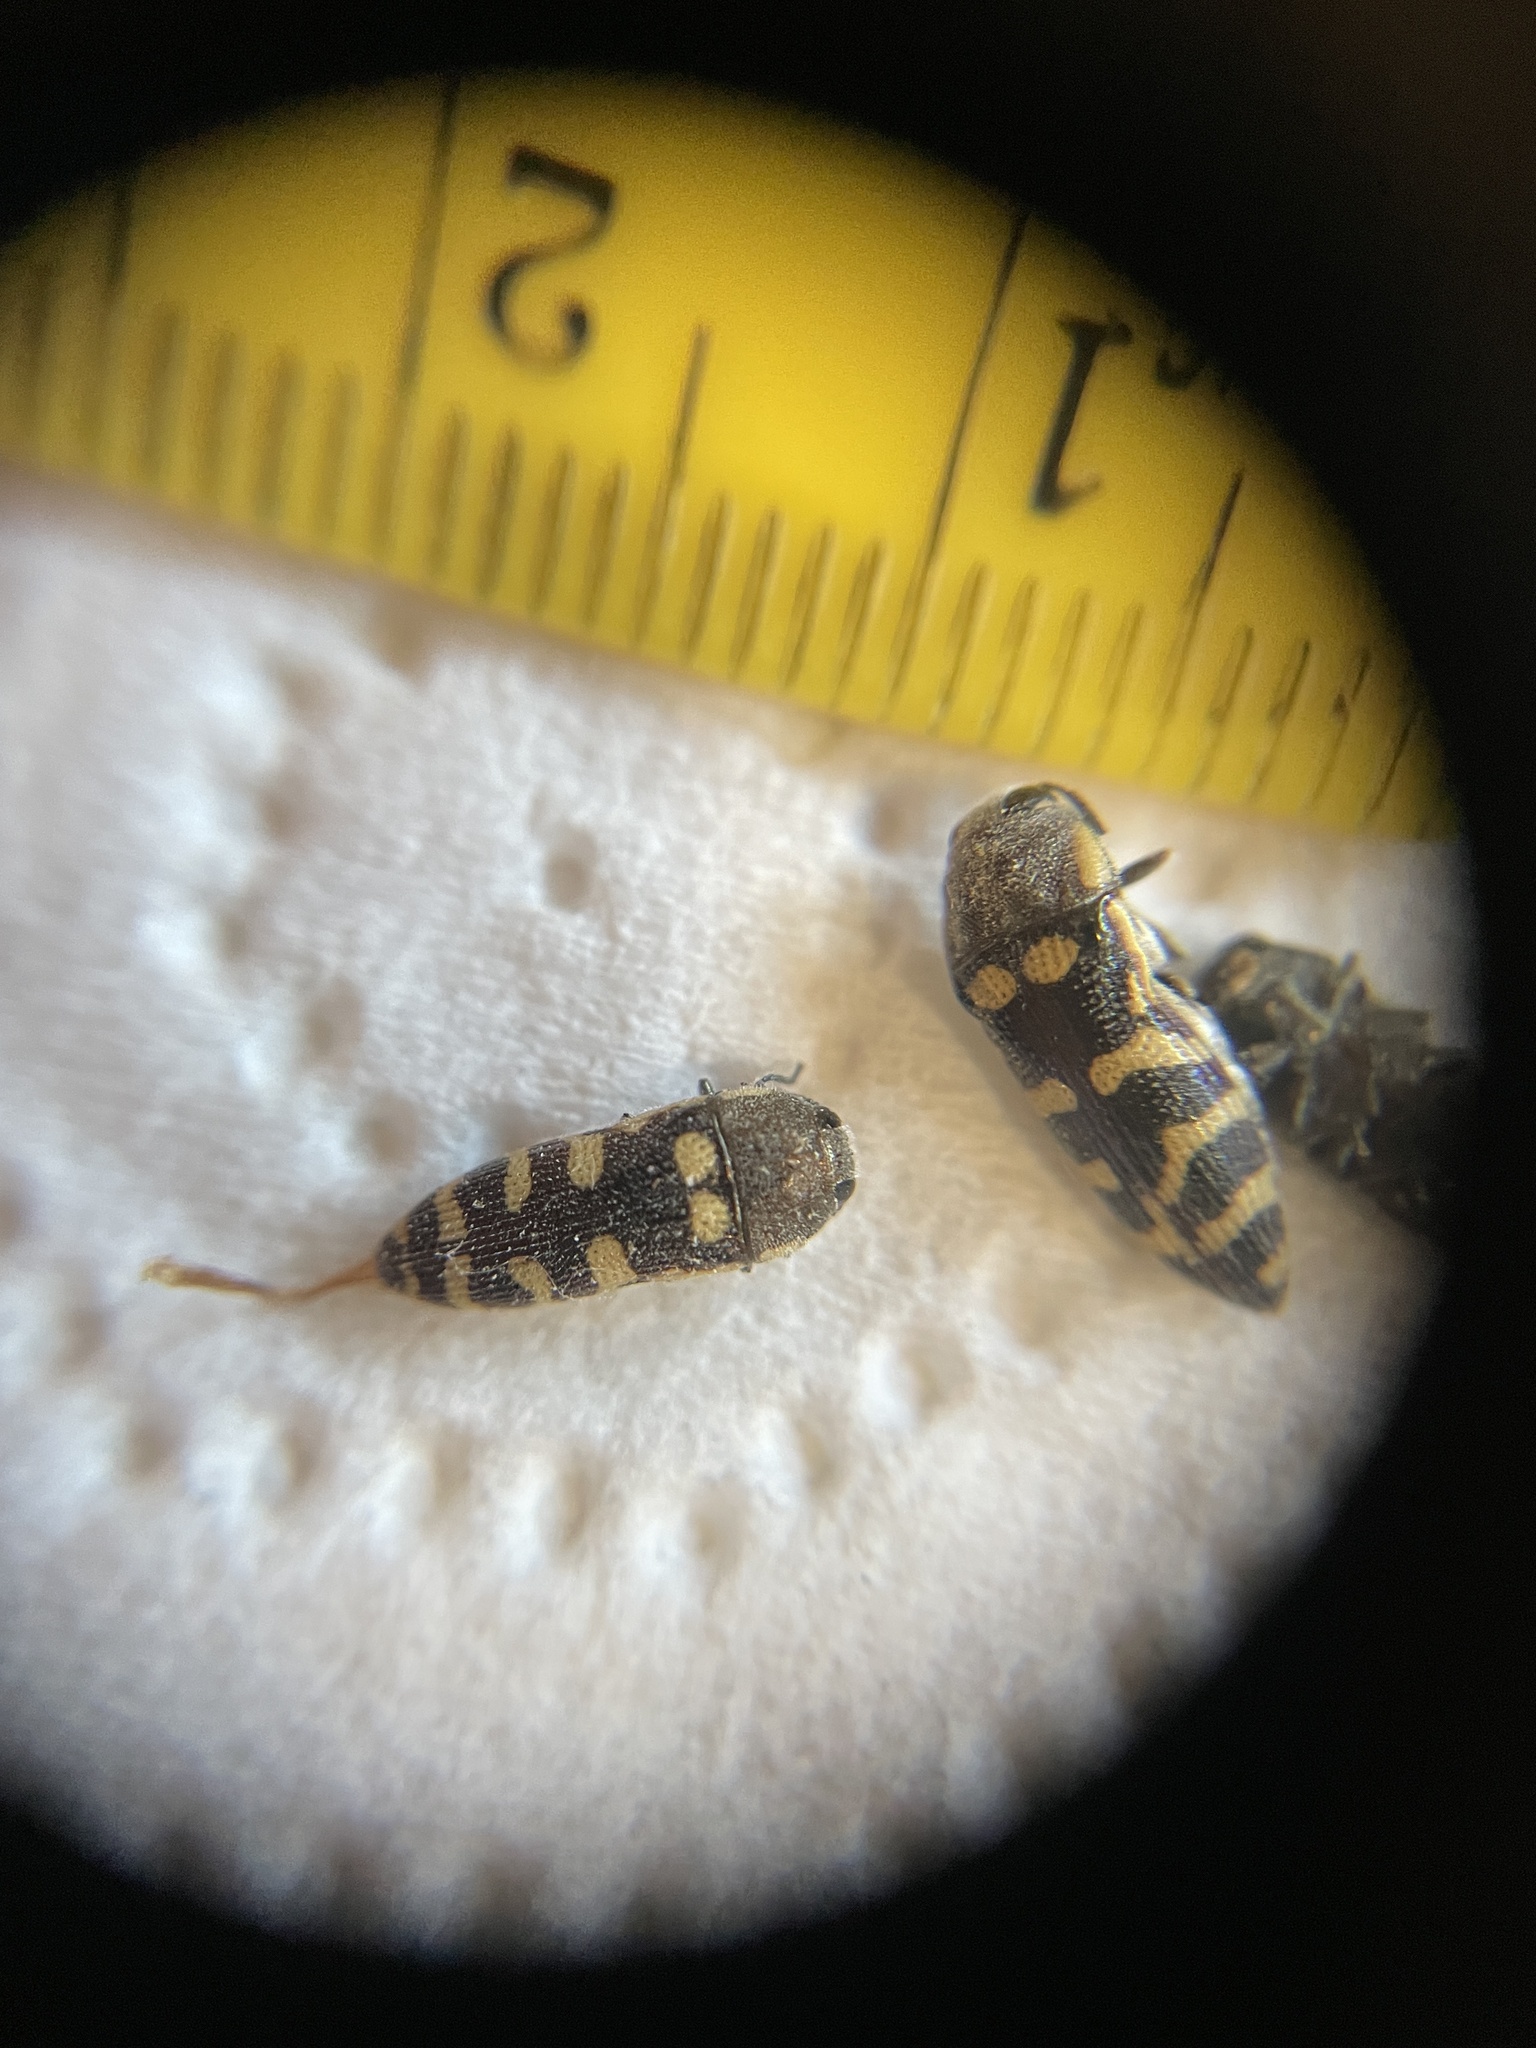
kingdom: Animalia
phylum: Arthropoda
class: Insecta
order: Coleoptera
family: Buprestidae
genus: Acmaeodera
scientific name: Acmaeodera alicia
